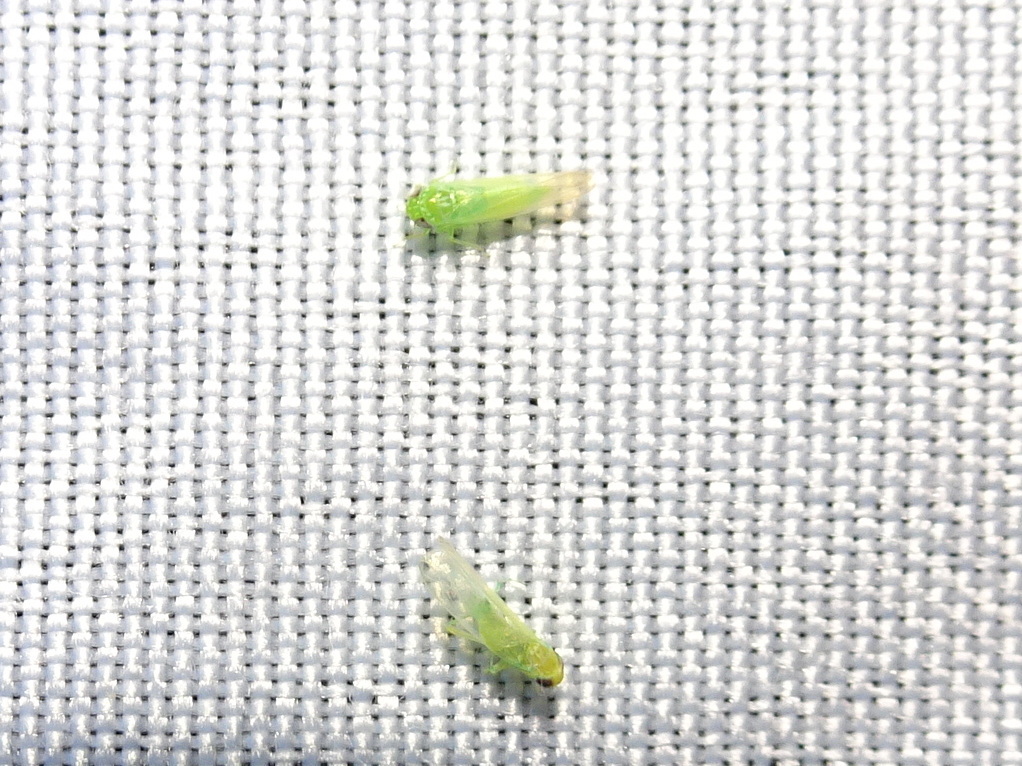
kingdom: Animalia
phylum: Arthropoda
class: Insecta
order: Hemiptera
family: Cicadellidae
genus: Empoasca
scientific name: Empoasca fabae
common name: Potato leafhopper
